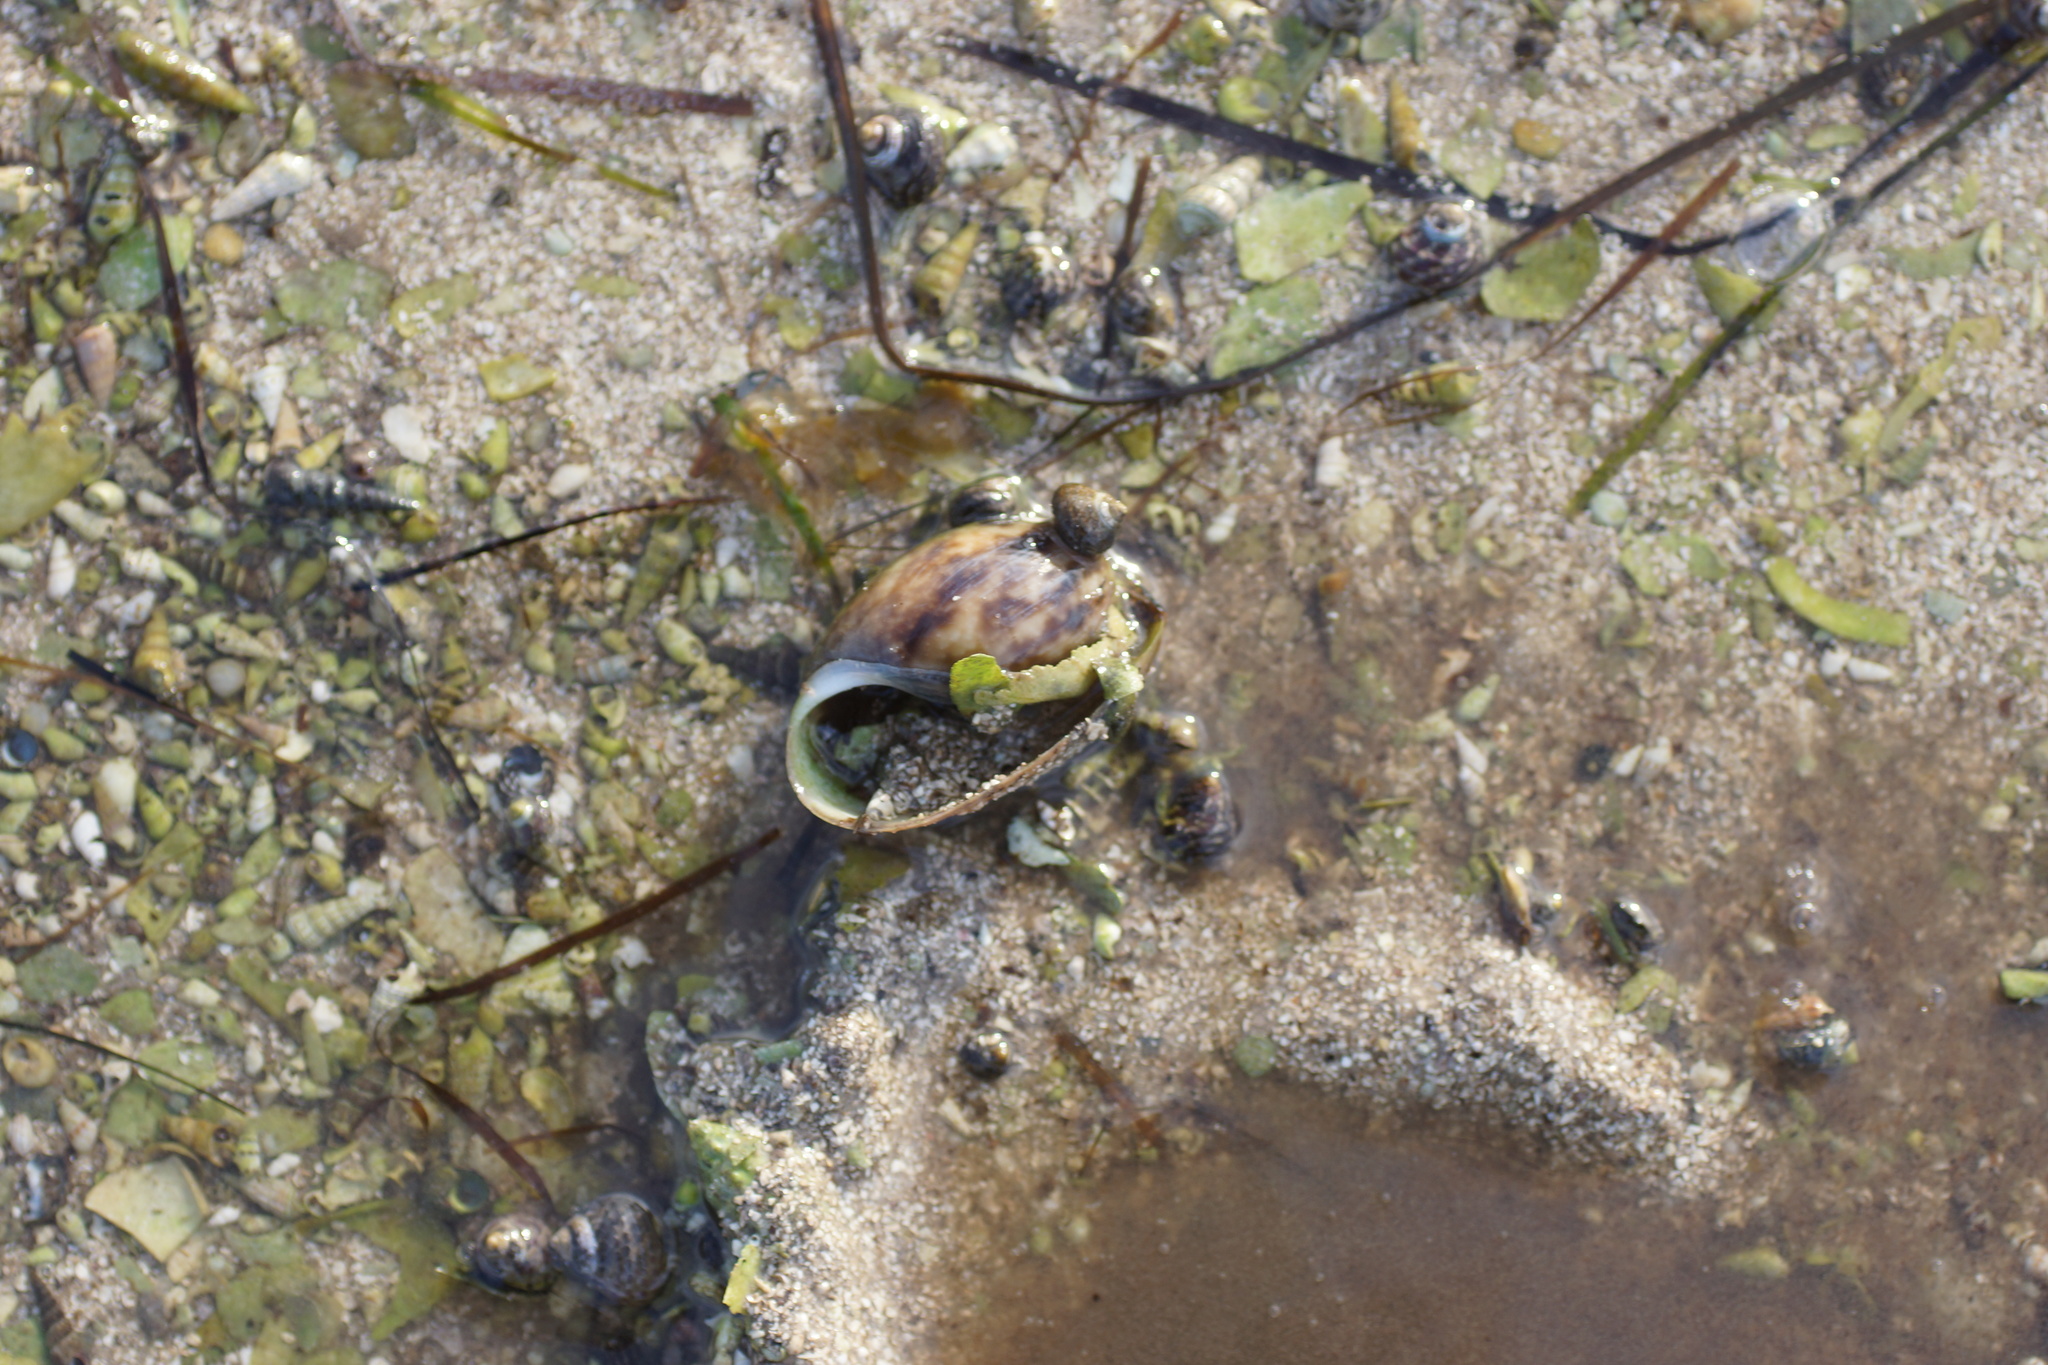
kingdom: Animalia
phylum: Mollusca
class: Gastropoda
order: Cephalaspidea
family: Bullidae
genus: Bulla
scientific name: Bulla quoyii
